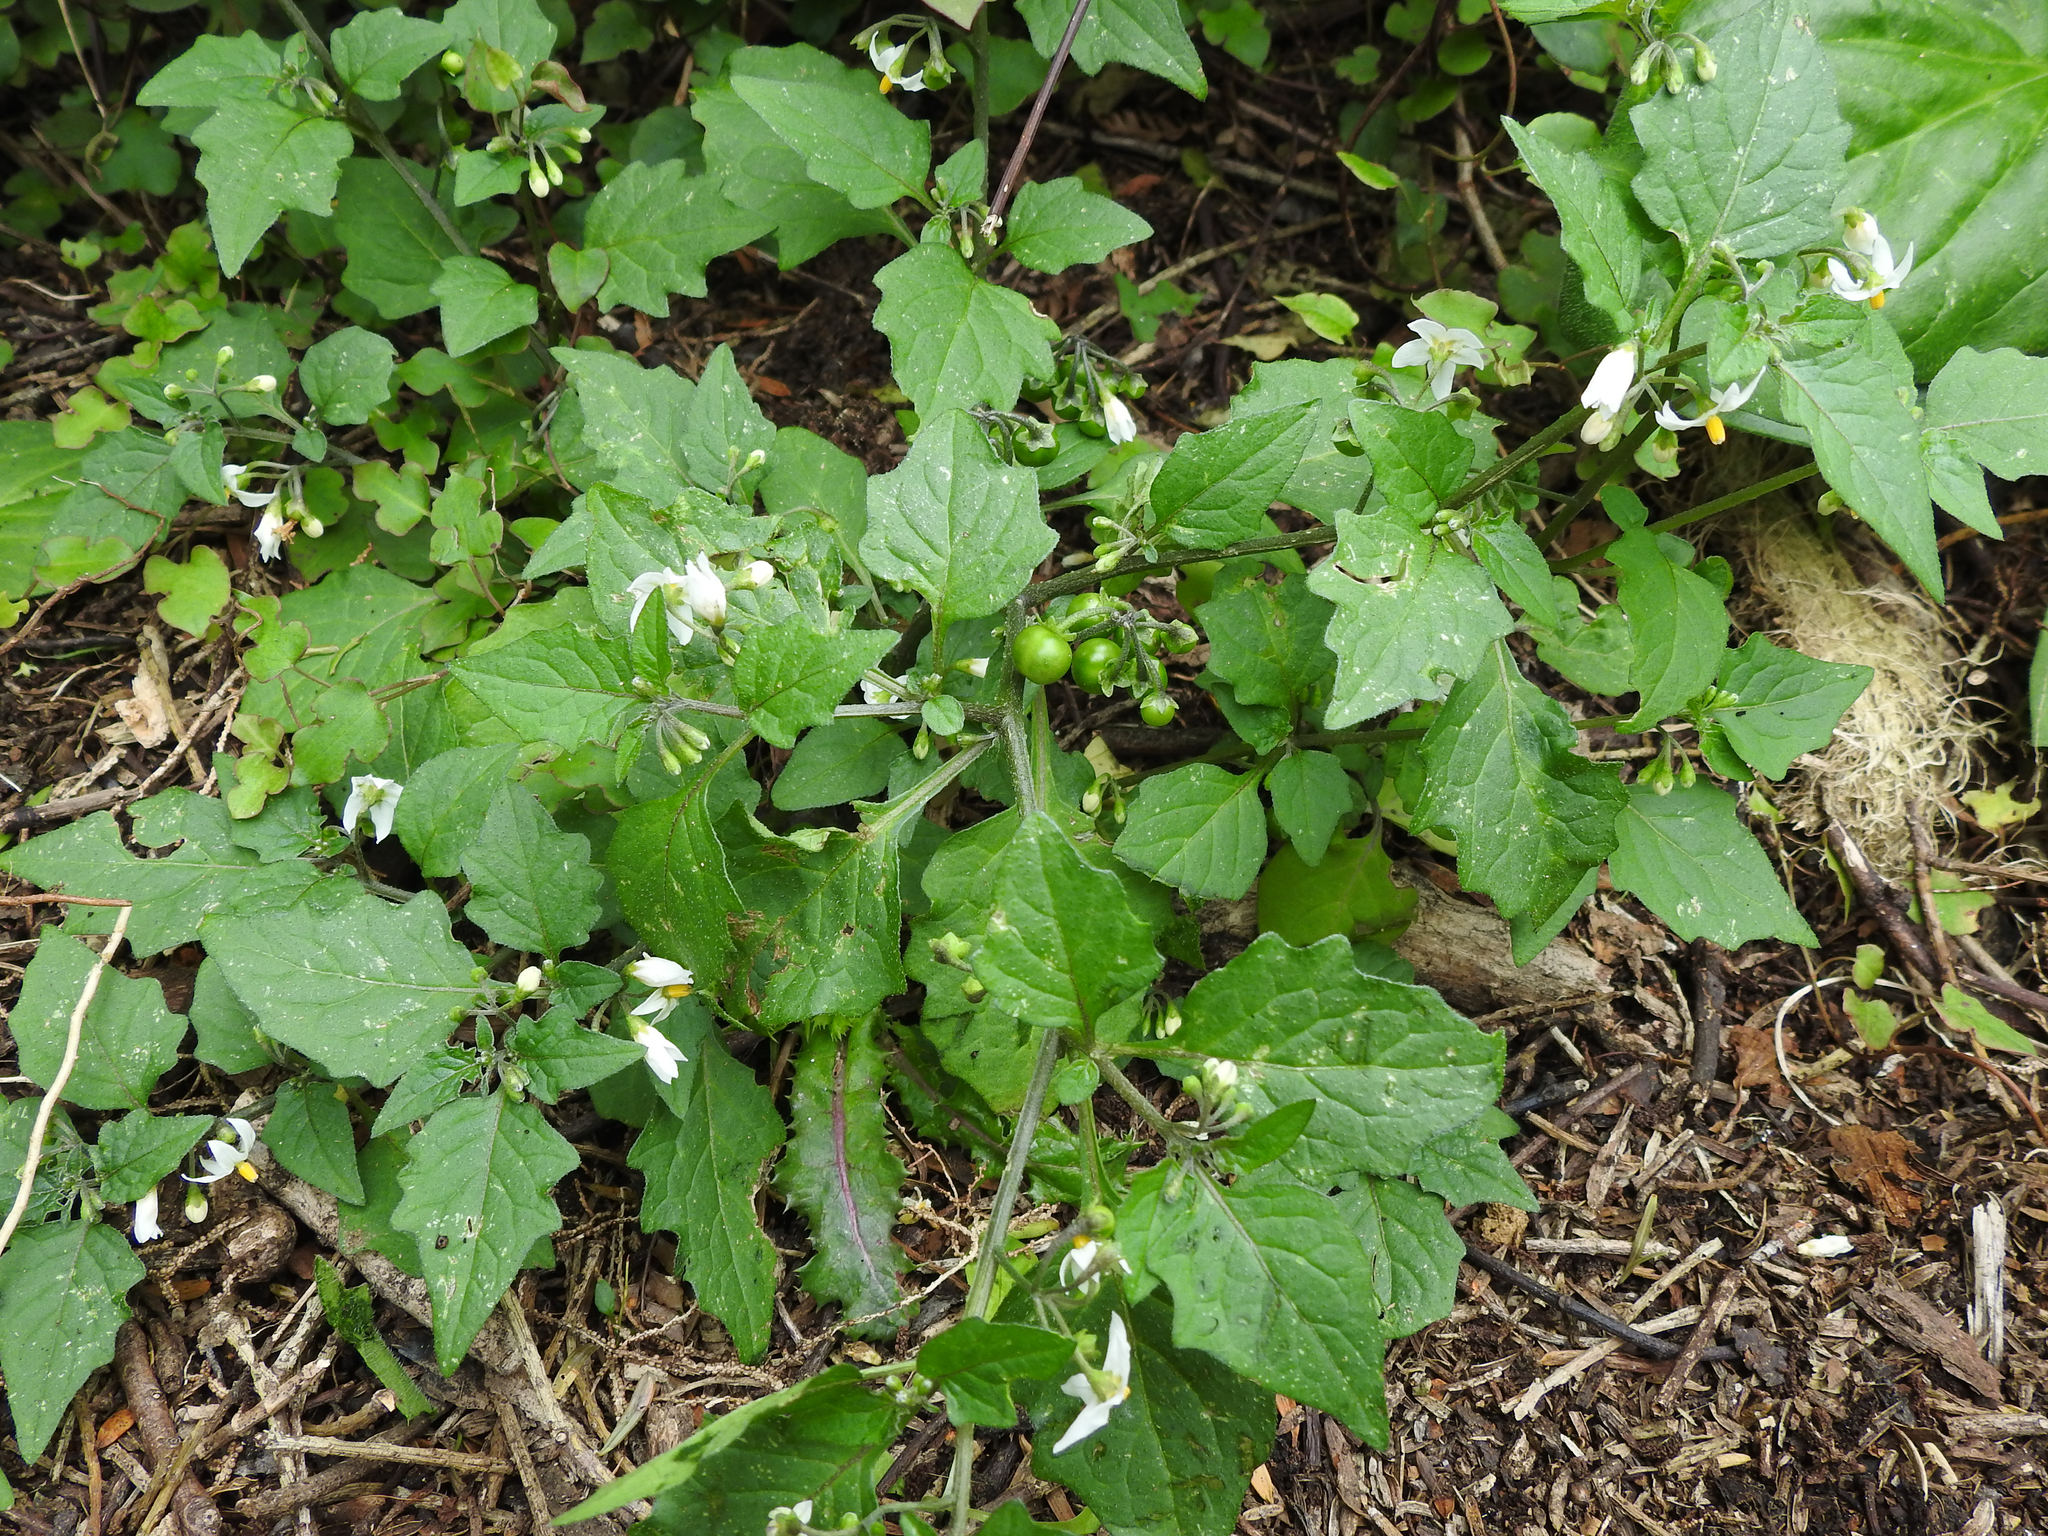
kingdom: Plantae
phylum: Tracheophyta
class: Magnoliopsida
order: Solanales
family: Solanaceae
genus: Solanum
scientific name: Solanum nigrum
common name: Black nightshade
